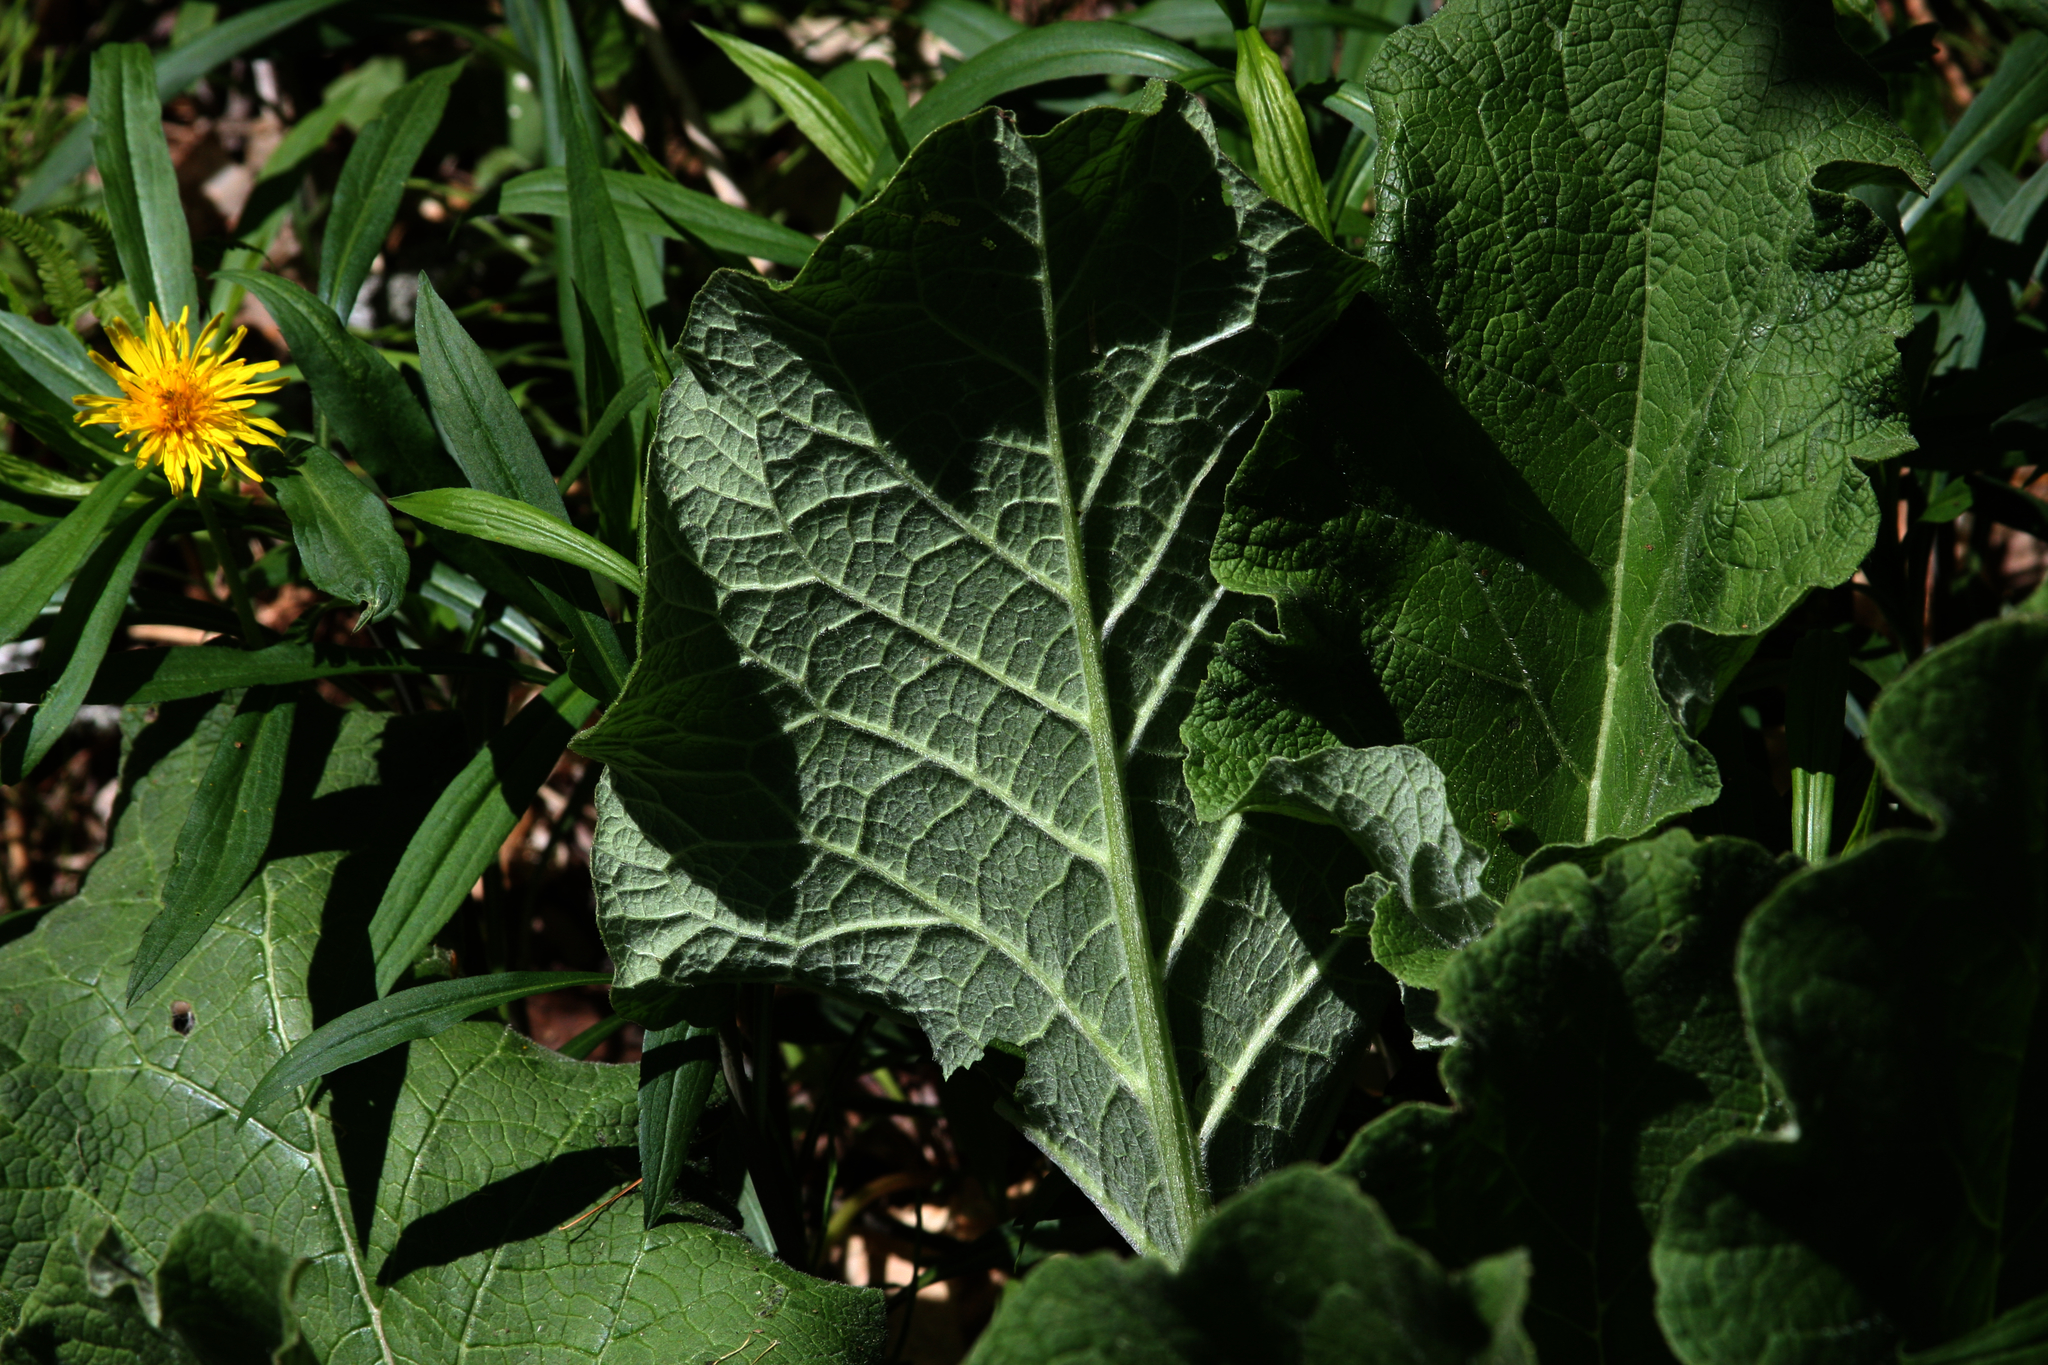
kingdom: Plantae
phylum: Tracheophyta
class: Magnoliopsida
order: Asterales
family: Asteraceae
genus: Arctium
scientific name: Arctium
